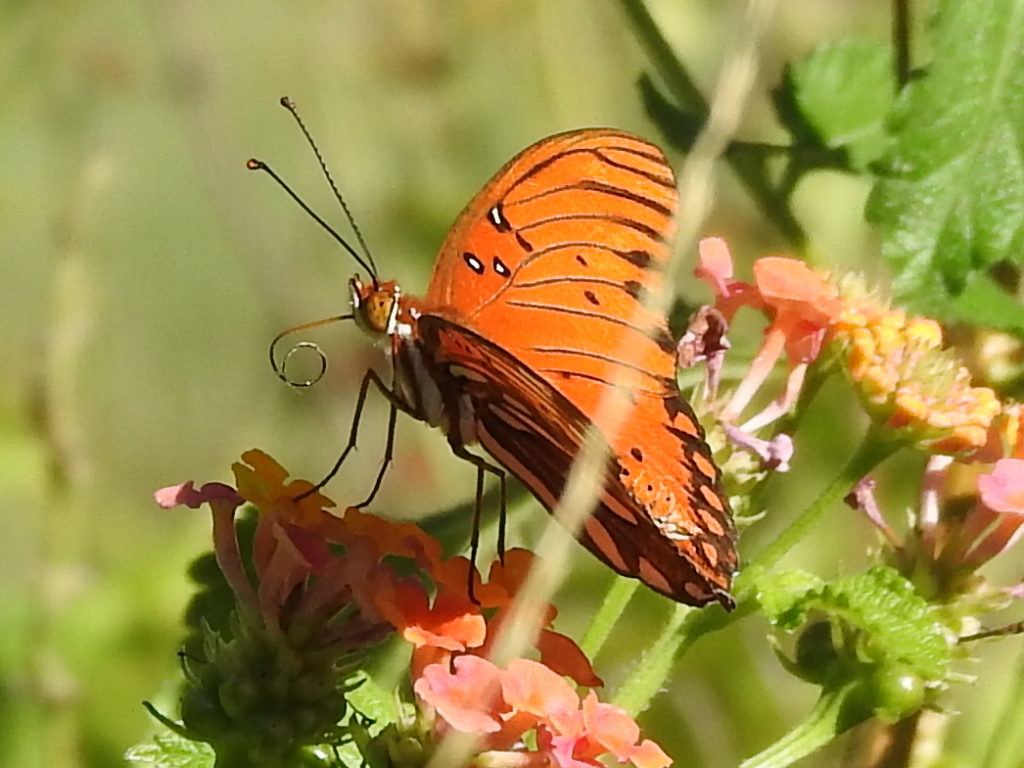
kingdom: Animalia
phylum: Arthropoda
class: Insecta
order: Lepidoptera
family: Nymphalidae
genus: Dione
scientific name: Dione vanillae
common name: Gulf fritillary
